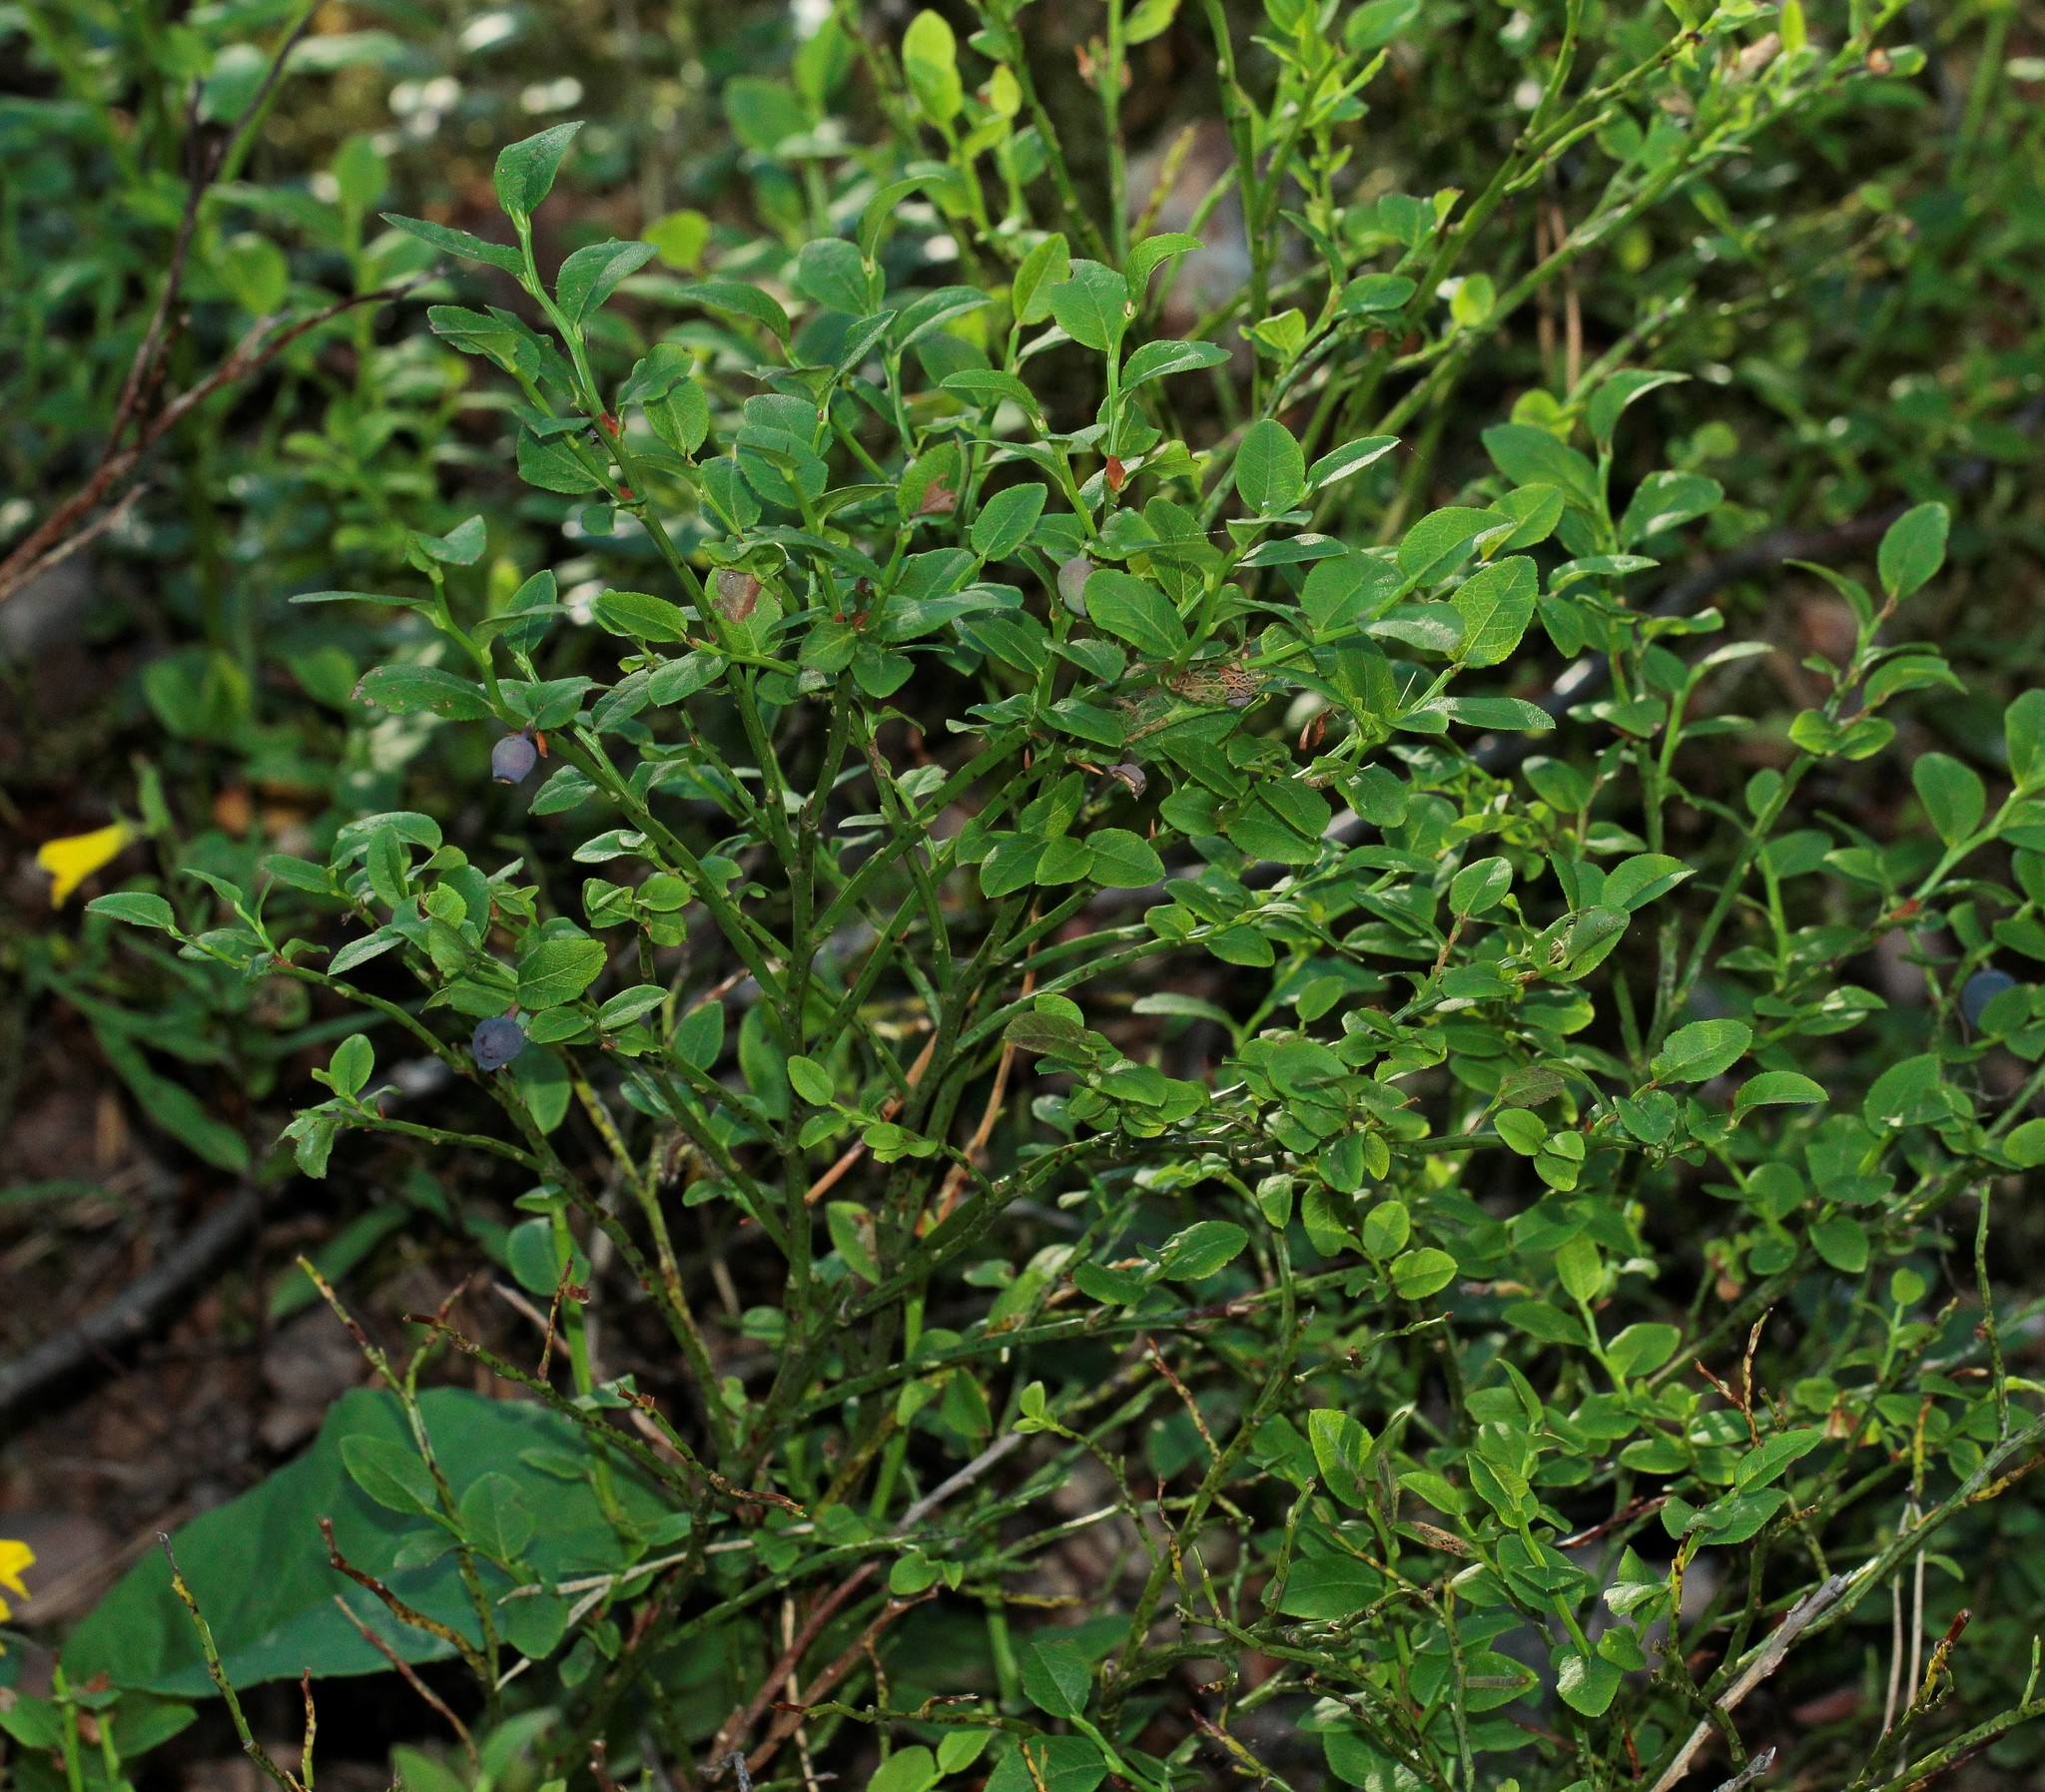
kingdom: Plantae
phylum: Tracheophyta
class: Magnoliopsida
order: Ericales
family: Ericaceae
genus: Vaccinium
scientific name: Vaccinium myrtillus
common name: Bilberry
